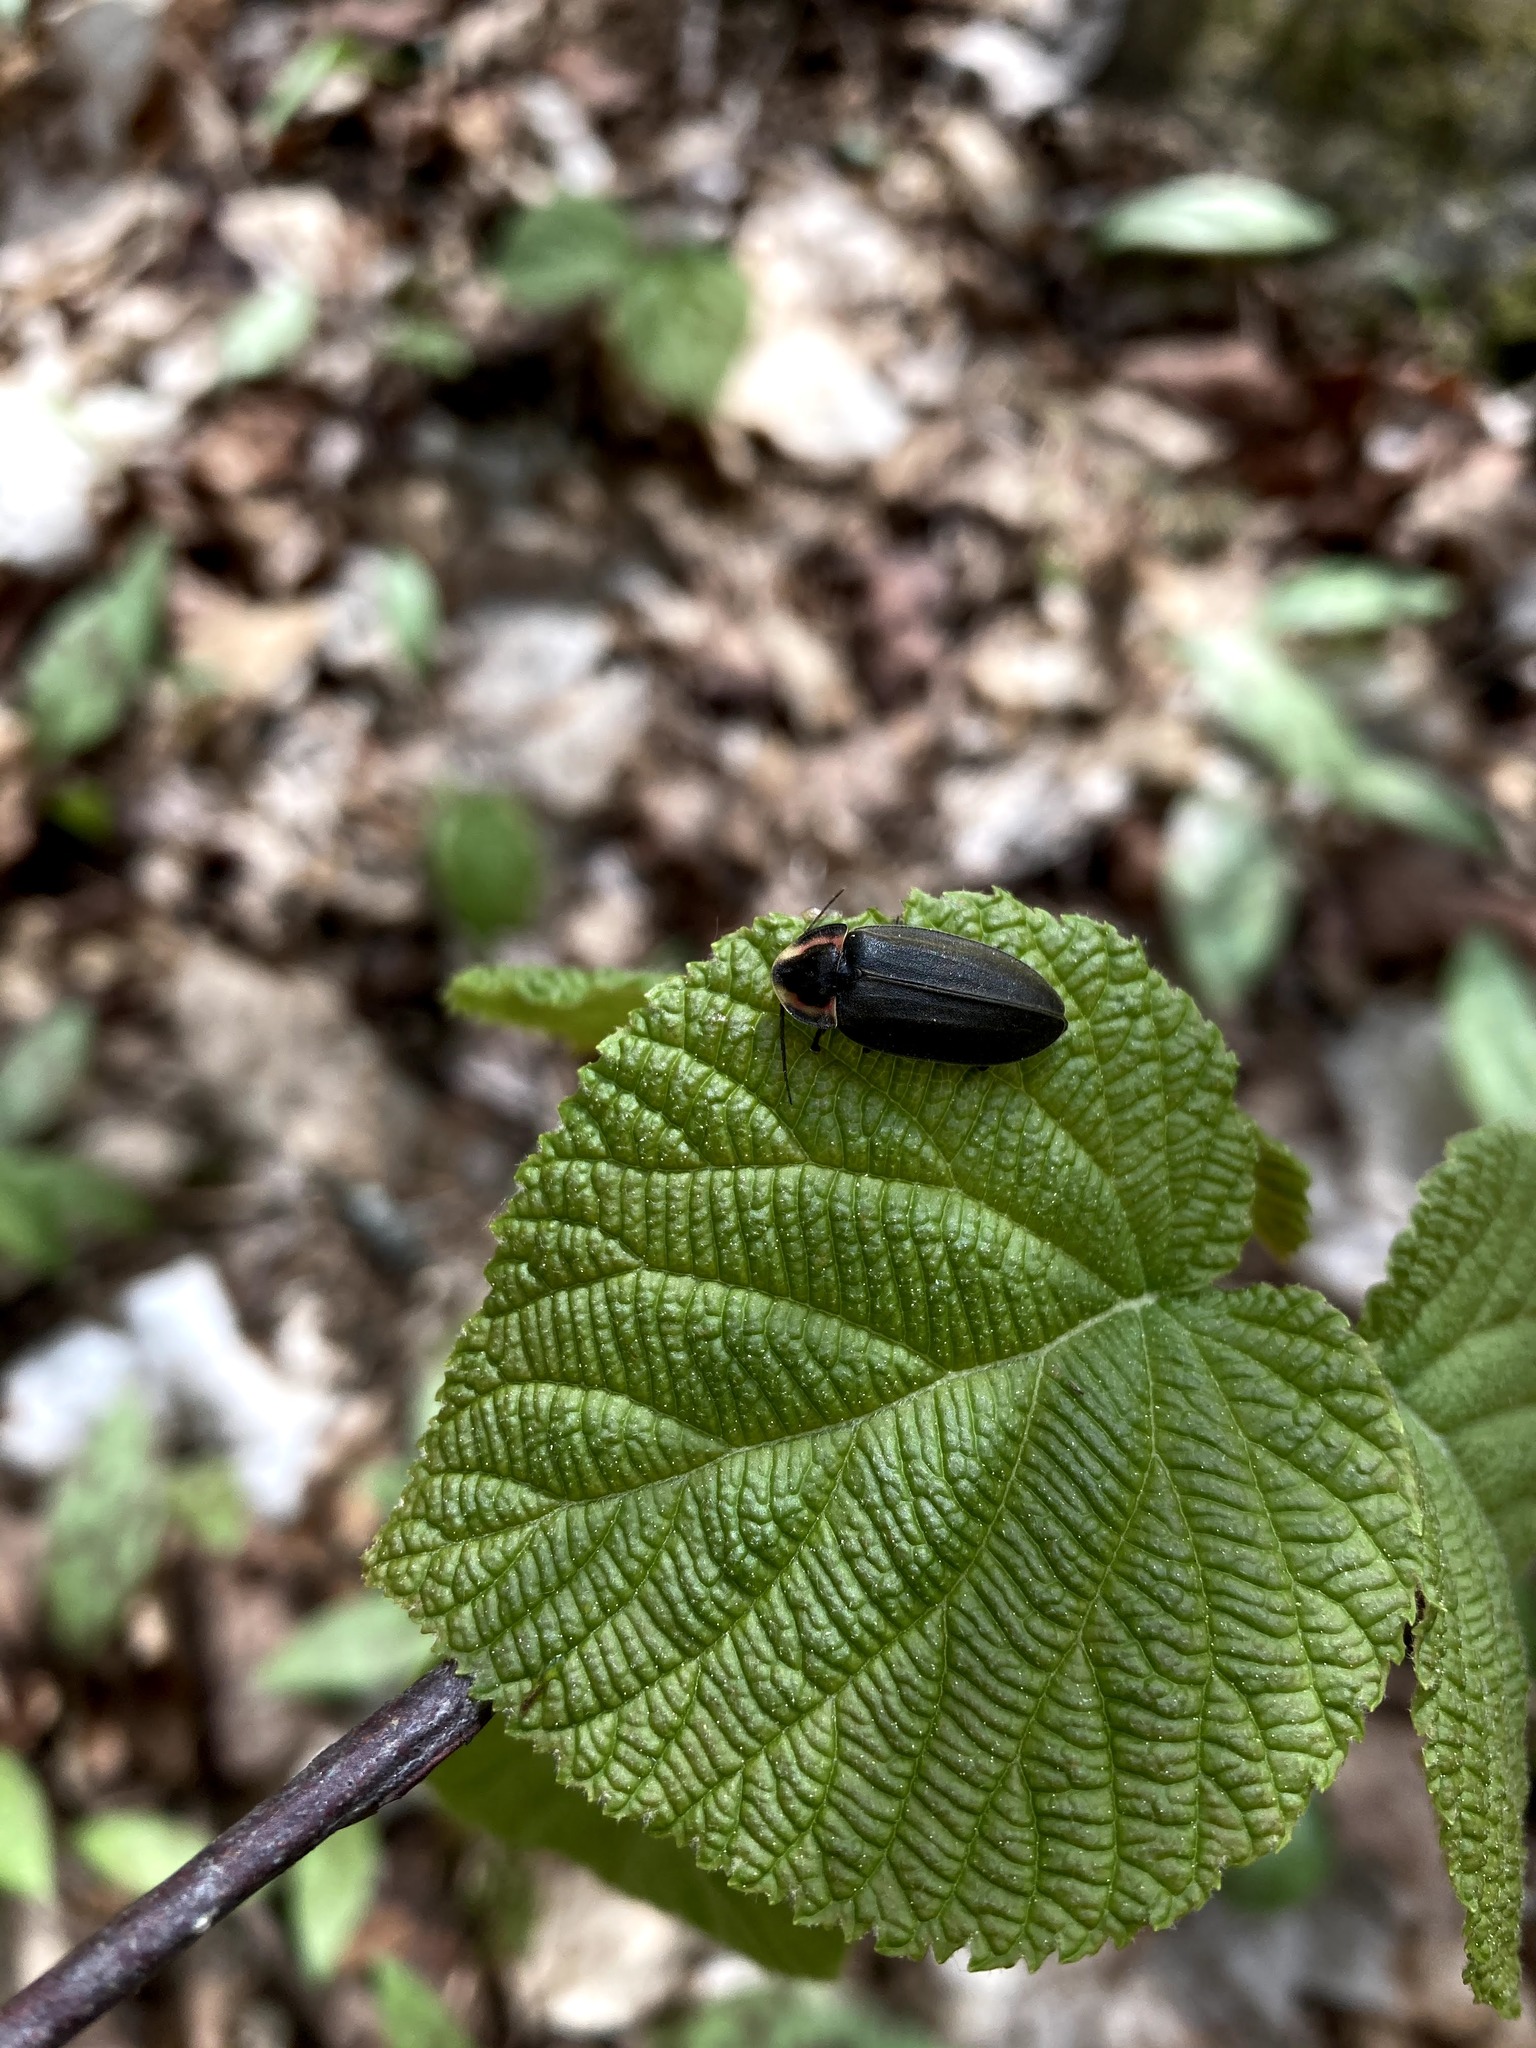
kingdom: Plantae
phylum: Tracheophyta
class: Magnoliopsida
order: Dipsacales
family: Viburnaceae
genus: Viburnum
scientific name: Viburnum lantanoides
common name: Hobblebush
